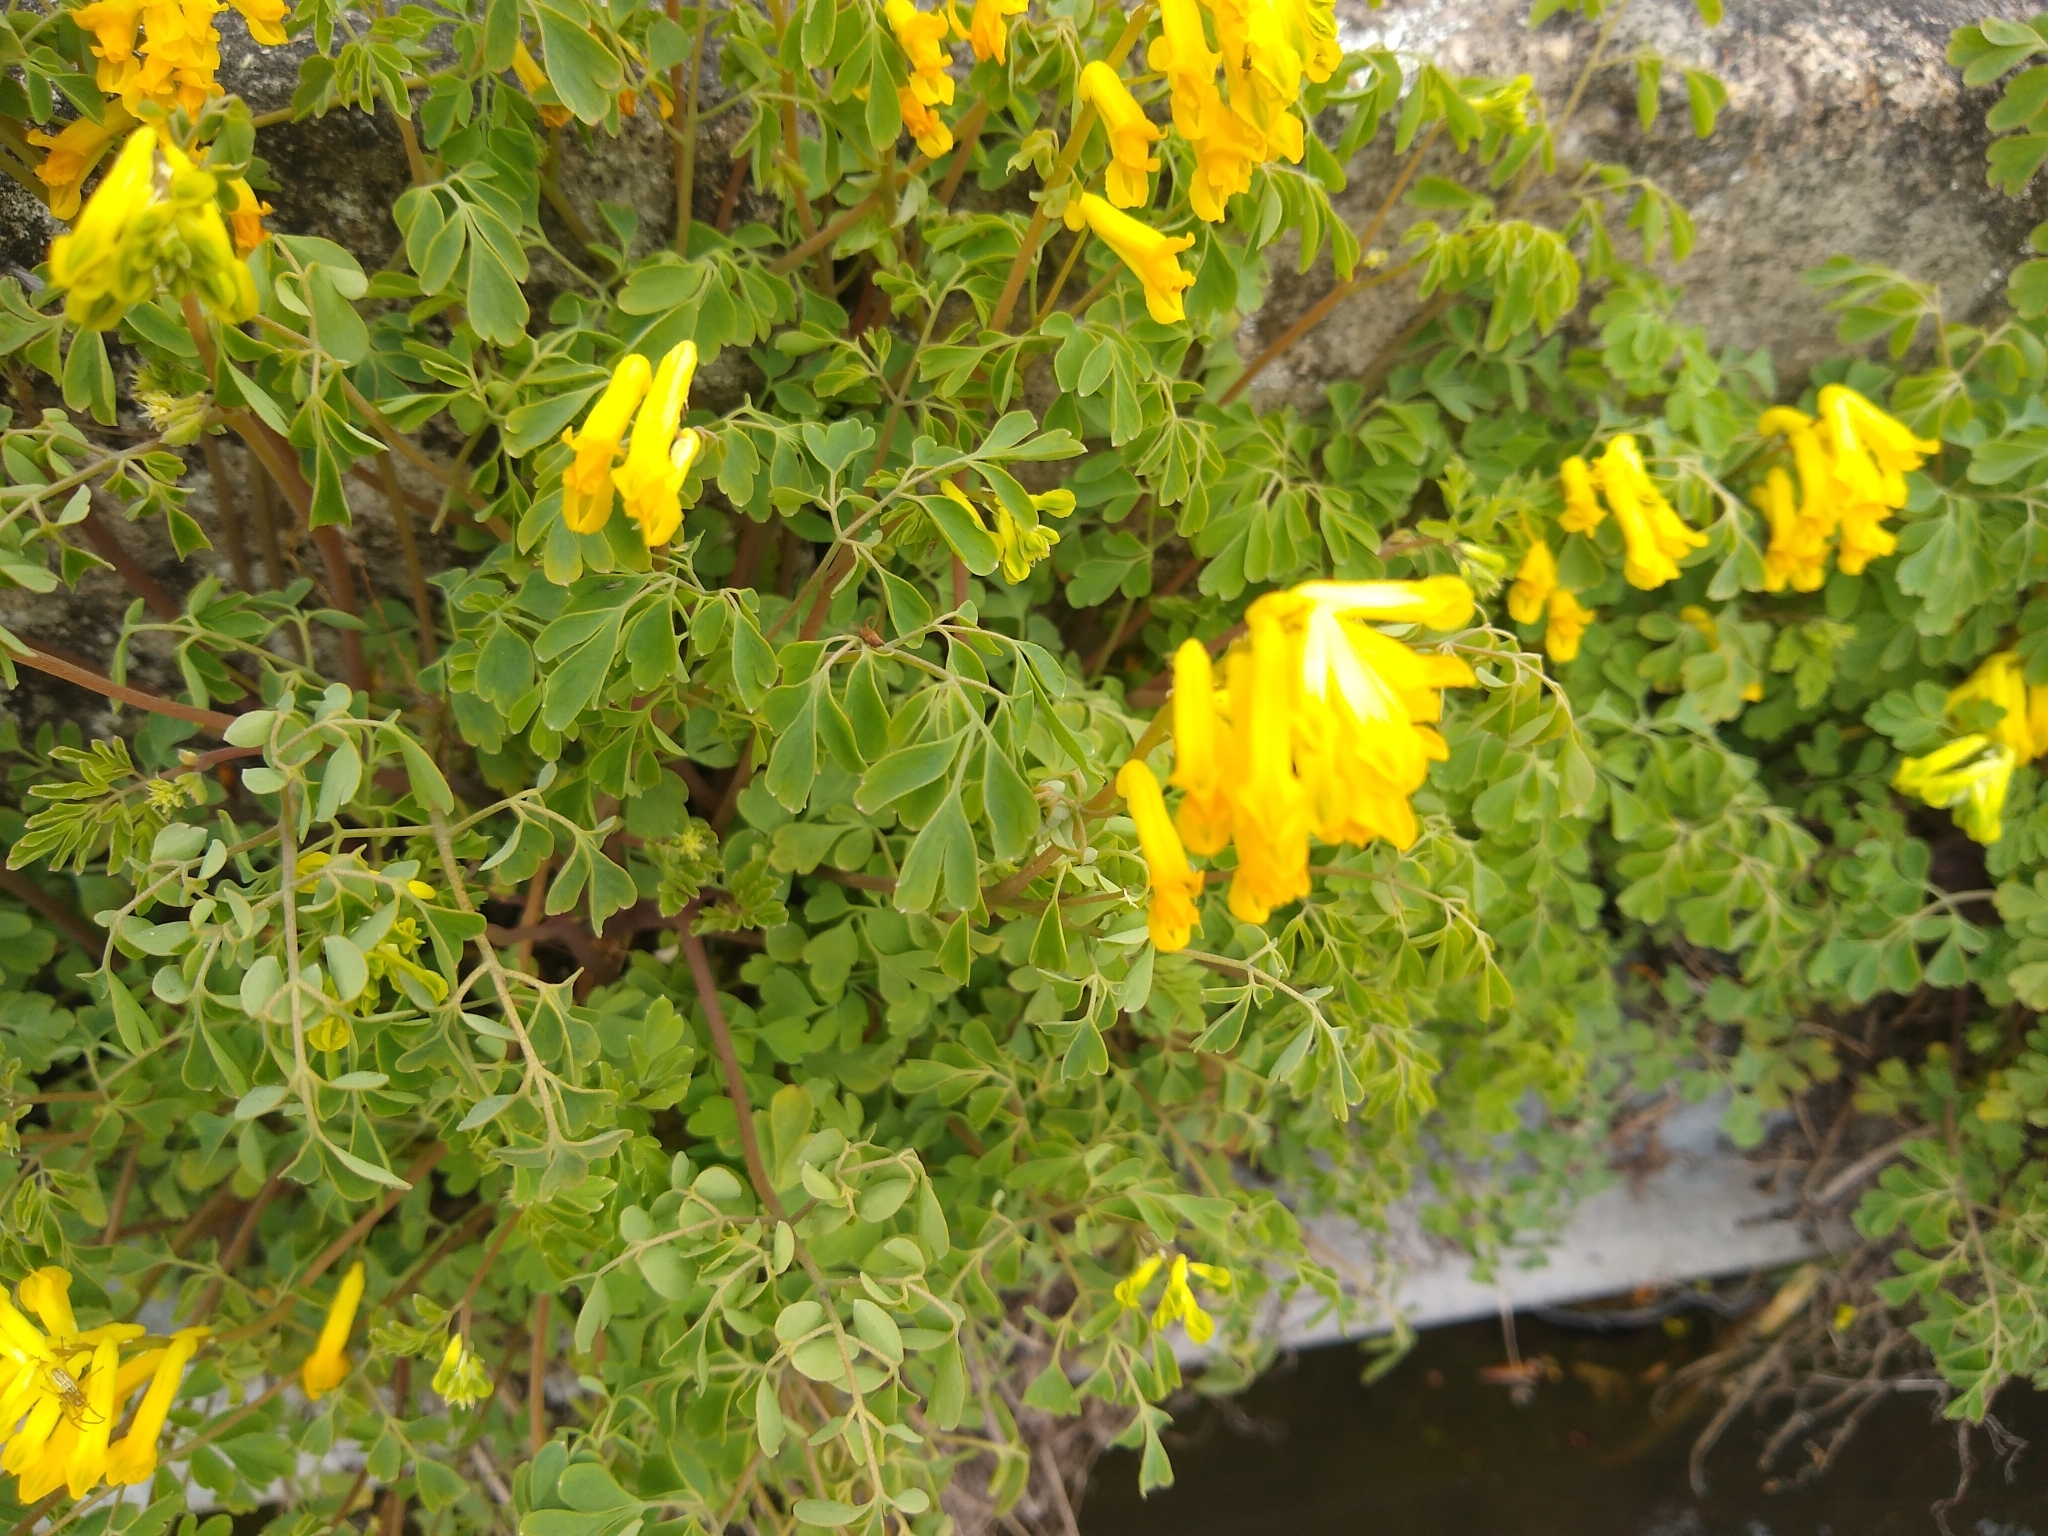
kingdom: Plantae
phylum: Tracheophyta
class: Magnoliopsida
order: Ranunculales
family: Papaveraceae
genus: Pseudofumaria
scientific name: Pseudofumaria lutea
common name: Yellow corydalis
